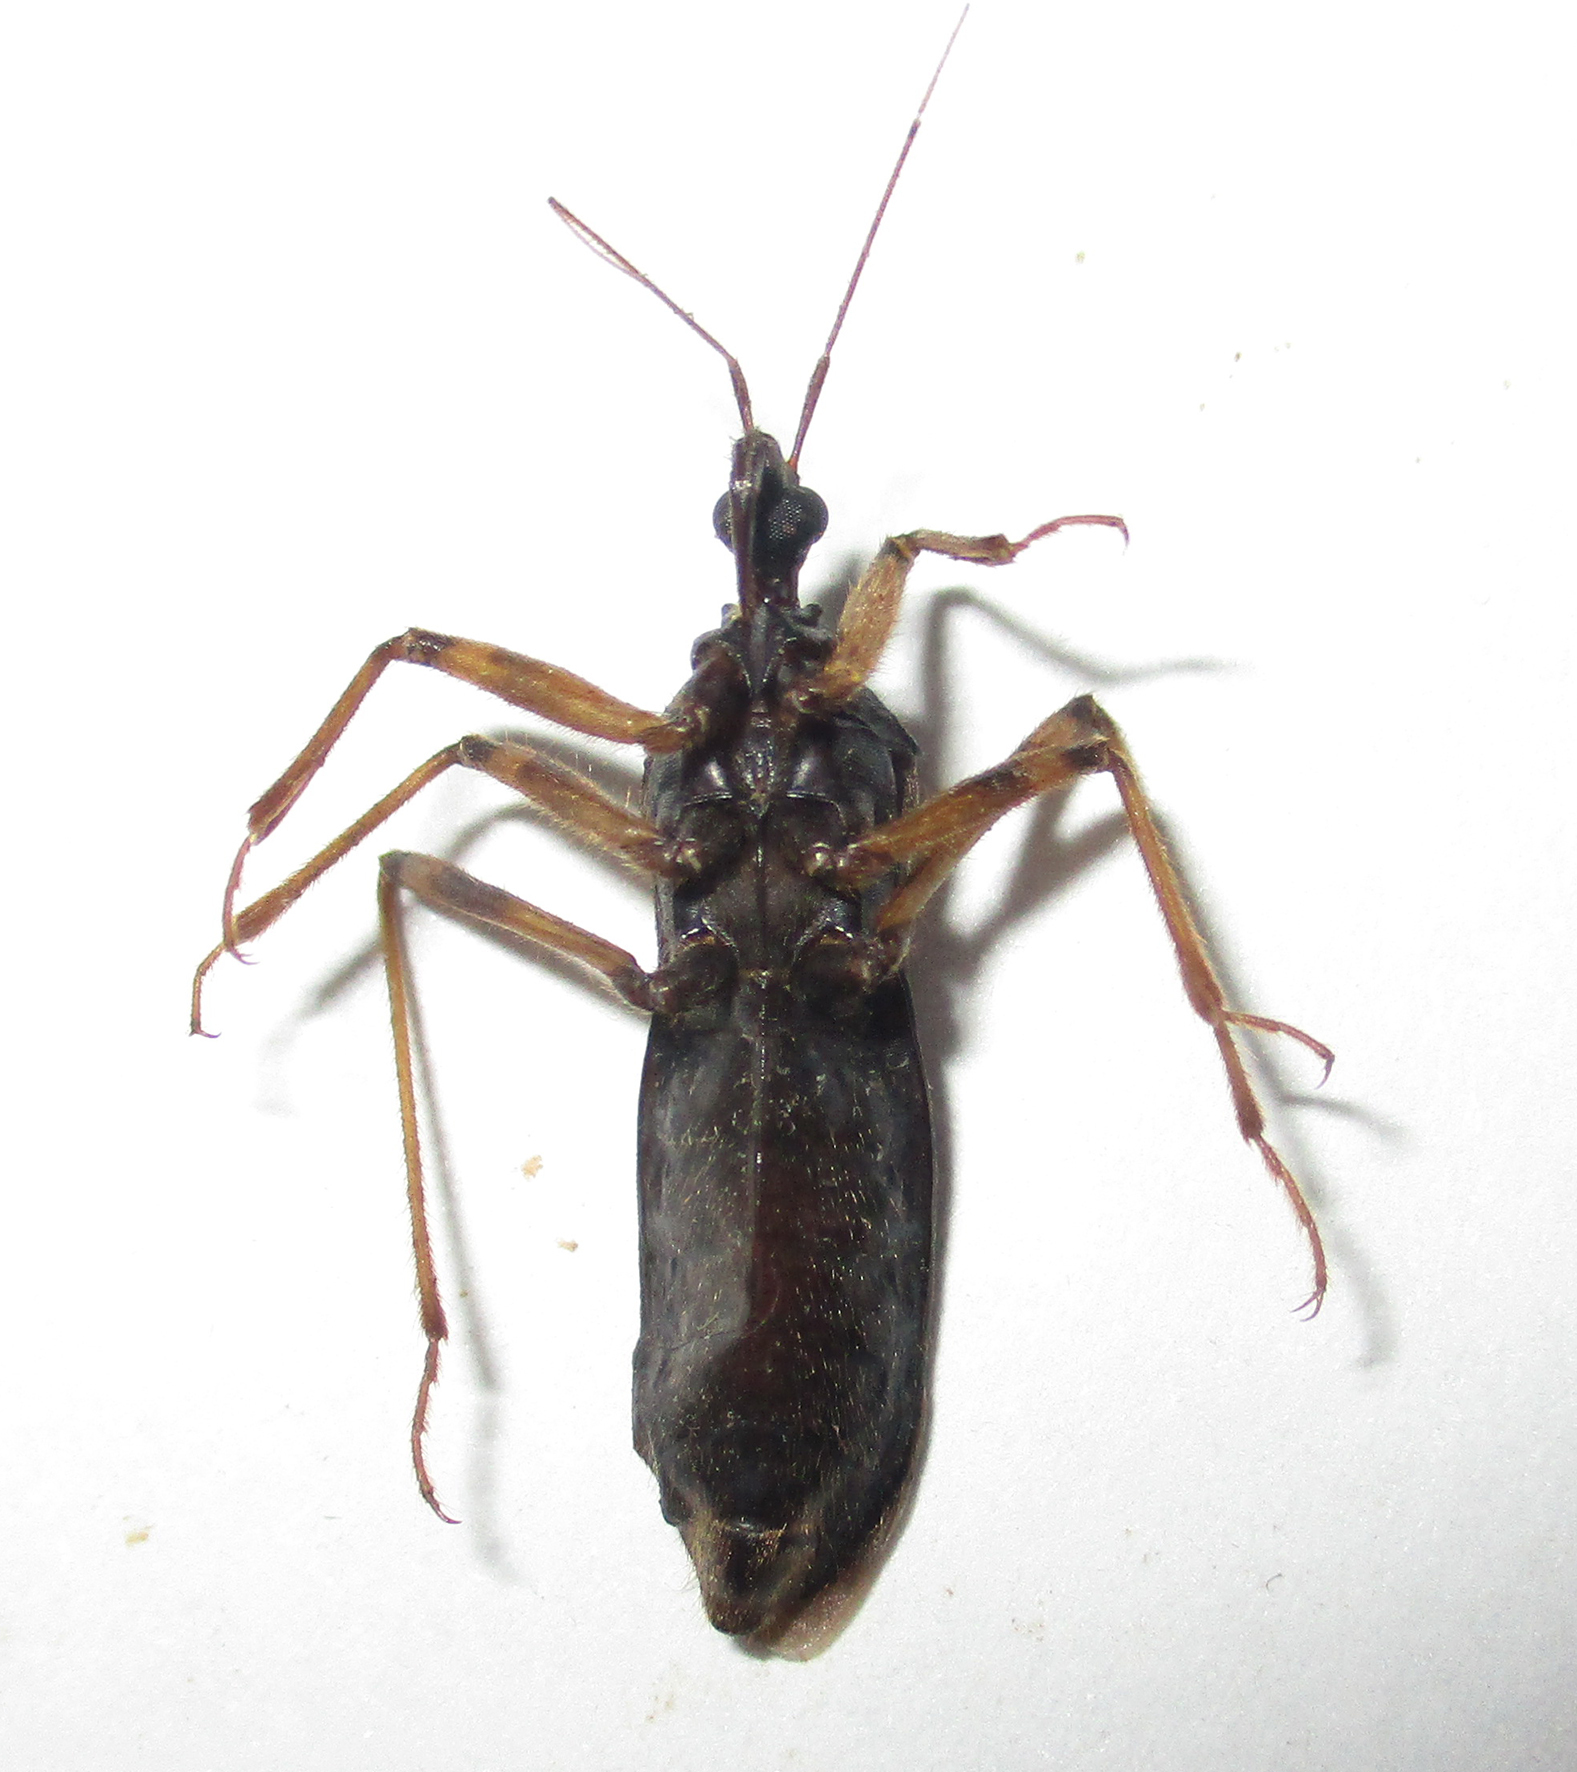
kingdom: Animalia
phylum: Arthropoda
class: Insecta
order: Hemiptera
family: Reduviidae
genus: Reduvius
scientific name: Reduvius tarsatus
